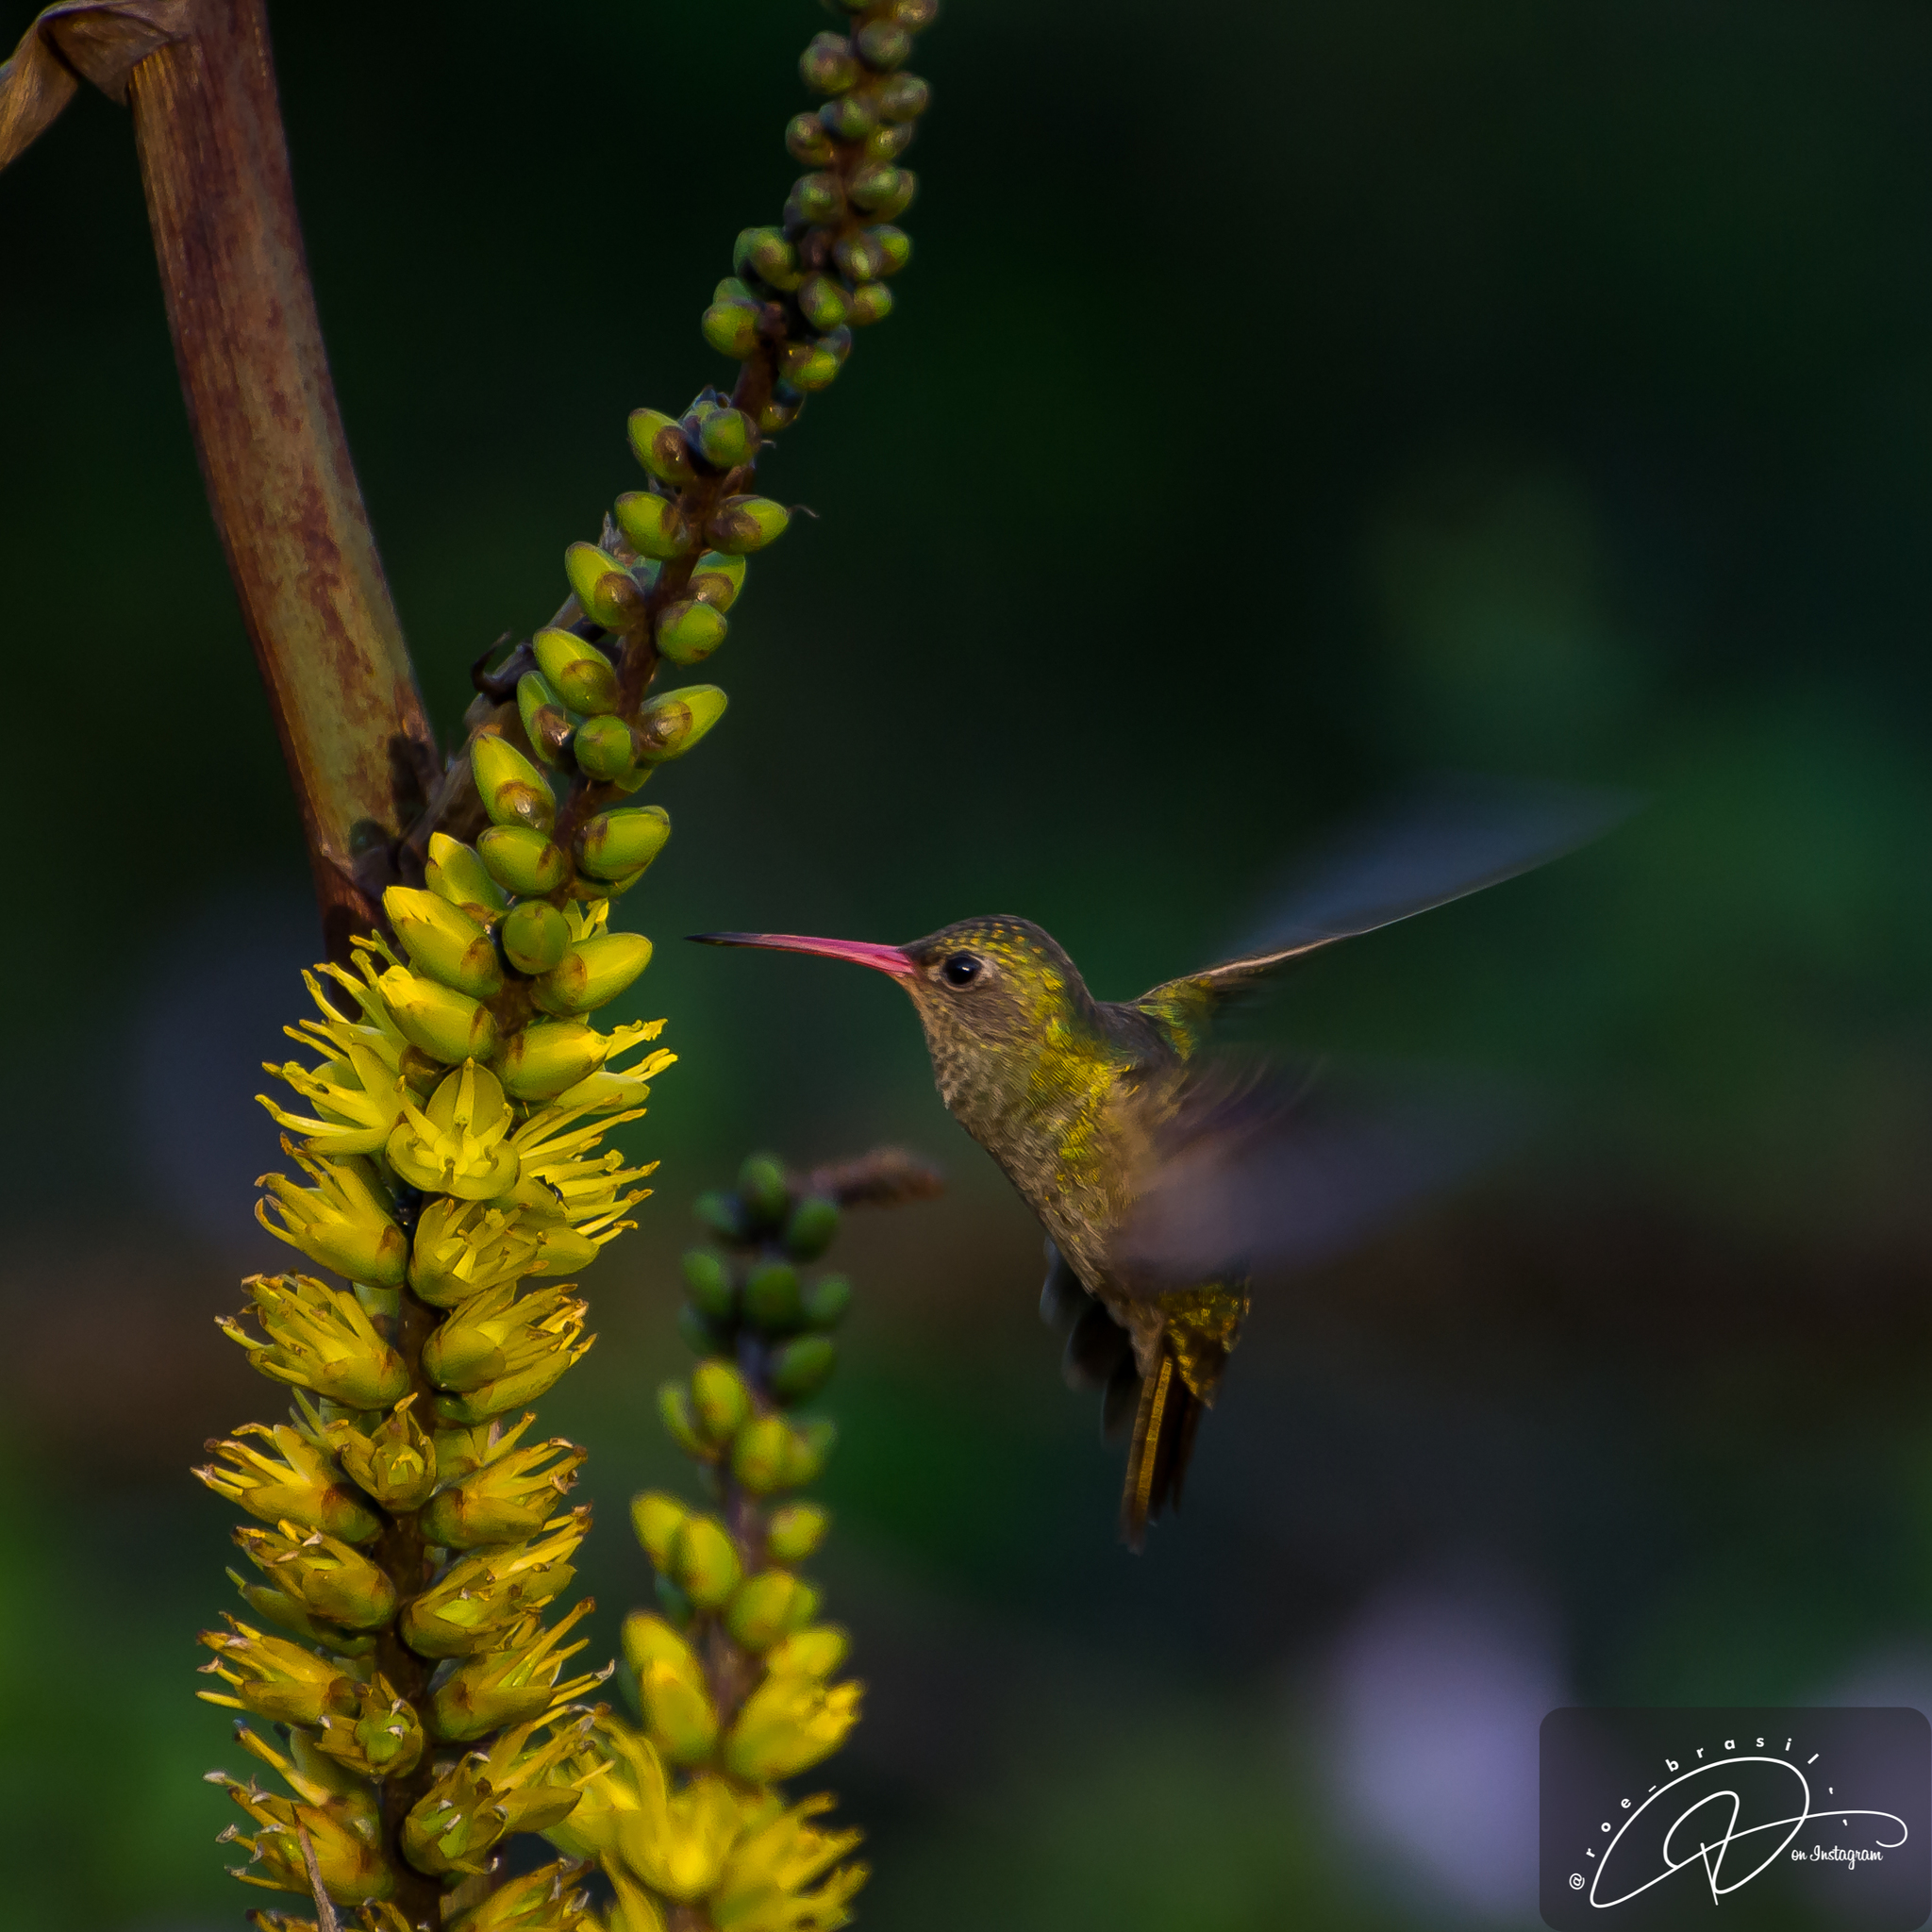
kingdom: Plantae
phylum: Tracheophyta
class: Liliopsida
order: Poales
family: Bromeliaceae
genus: Dyckia
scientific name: Dyckia walteriana
